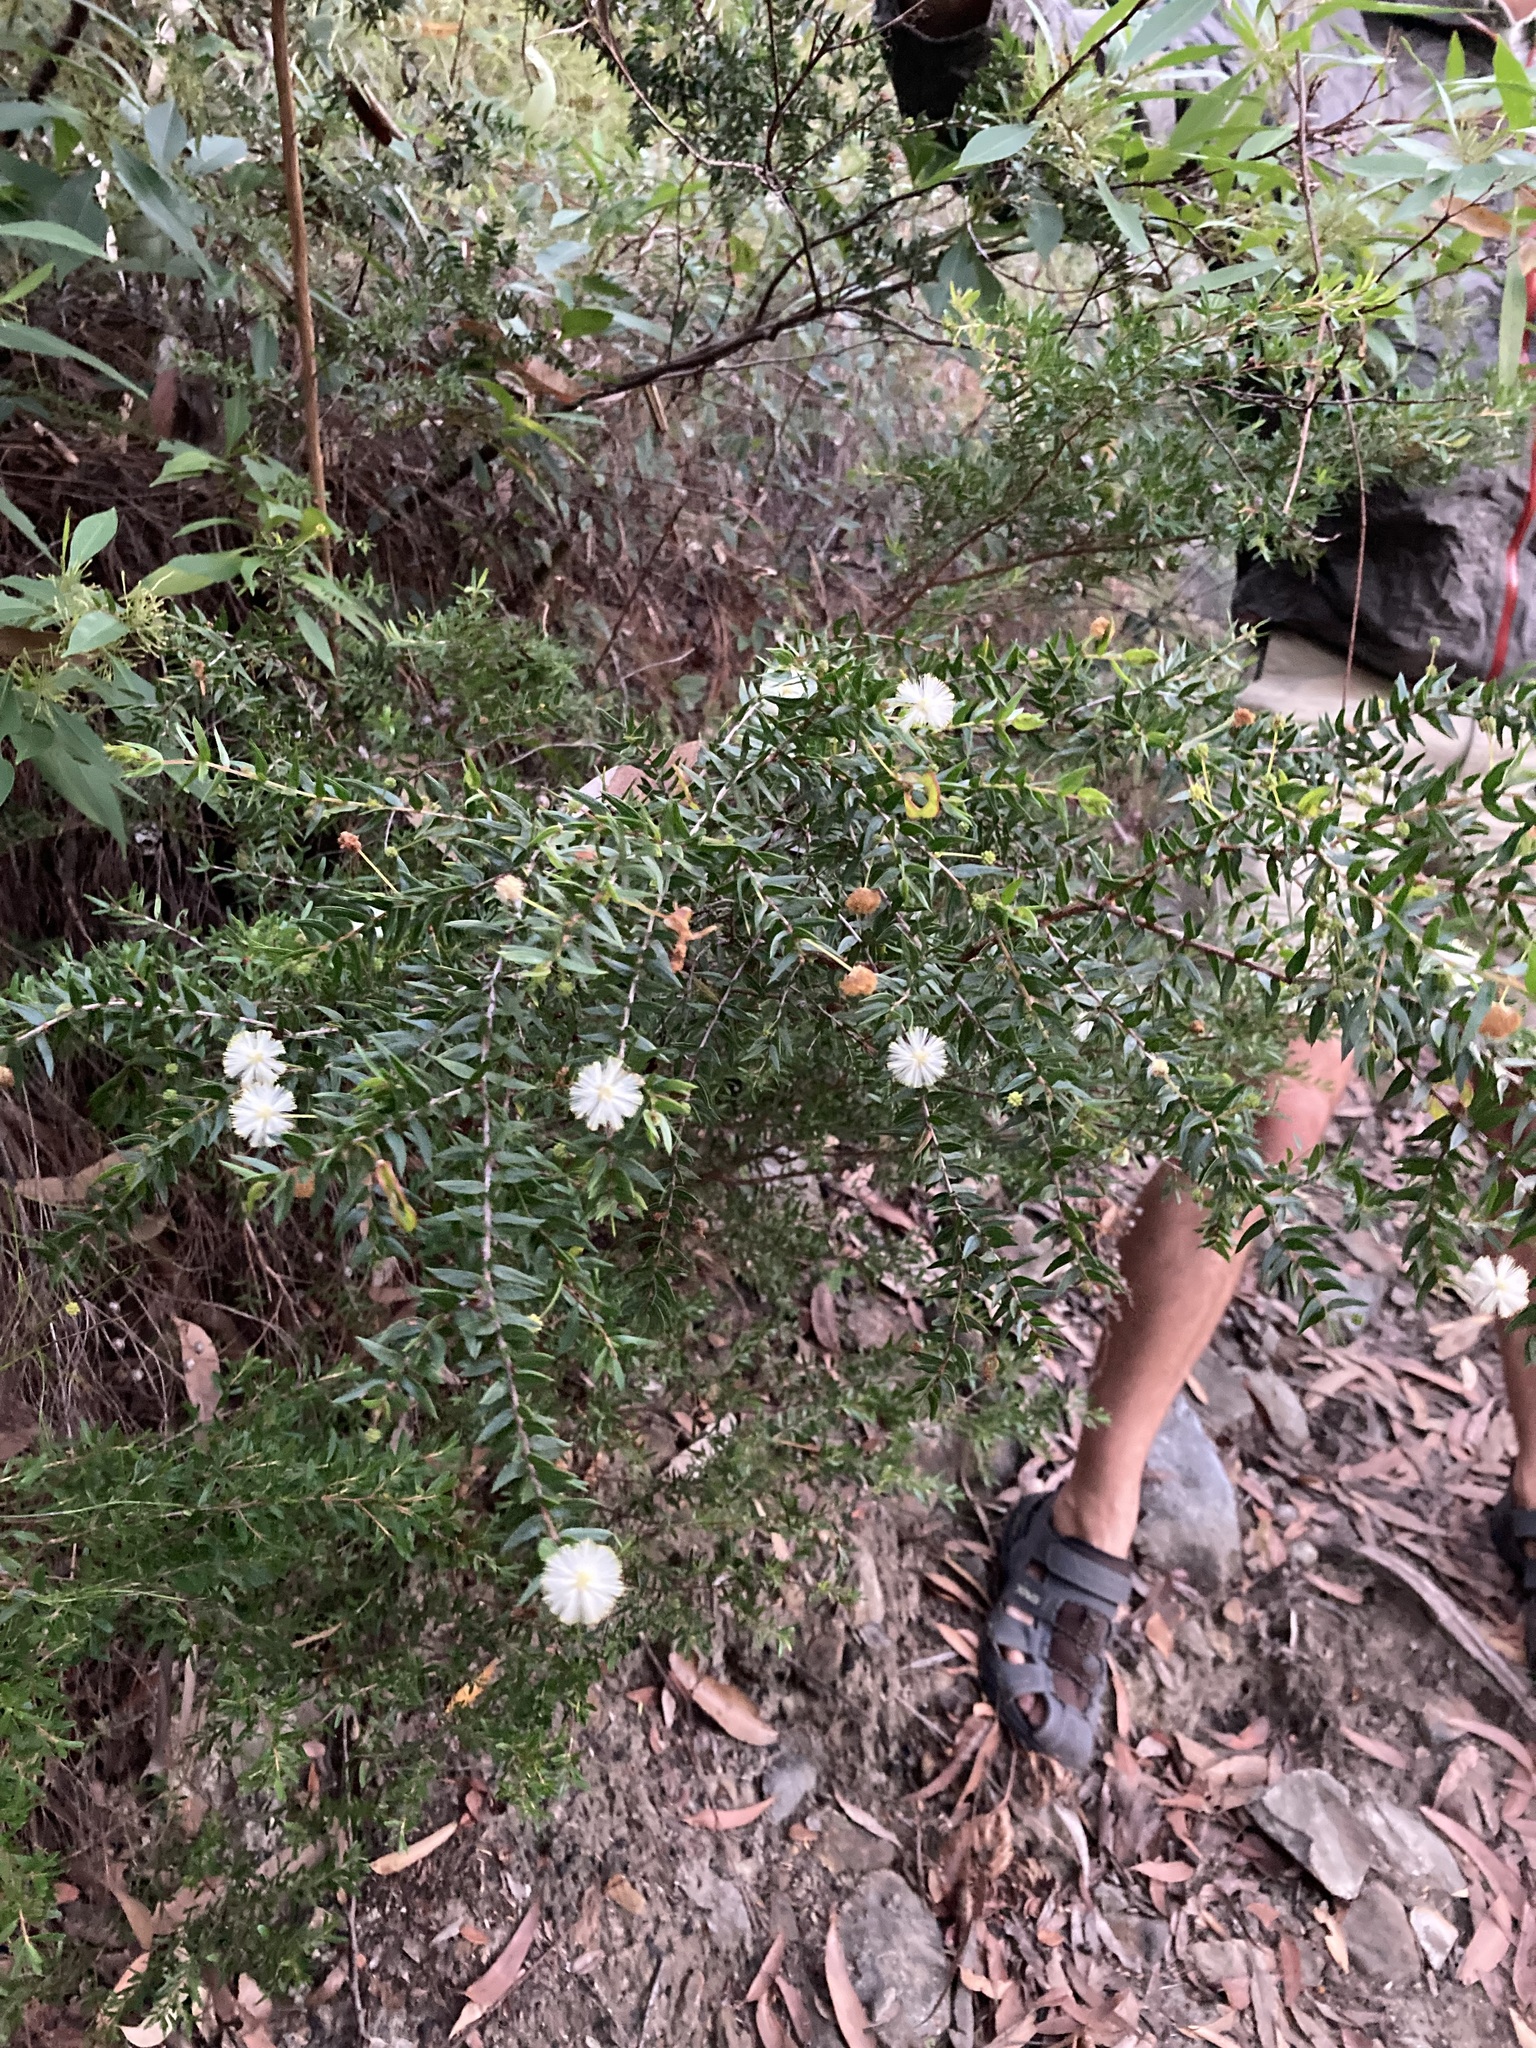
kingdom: Plantae
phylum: Tracheophyta
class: Magnoliopsida
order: Fabales
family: Fabaceae
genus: Acacia
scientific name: Acacia ulicifolia
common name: Juniper wattle
